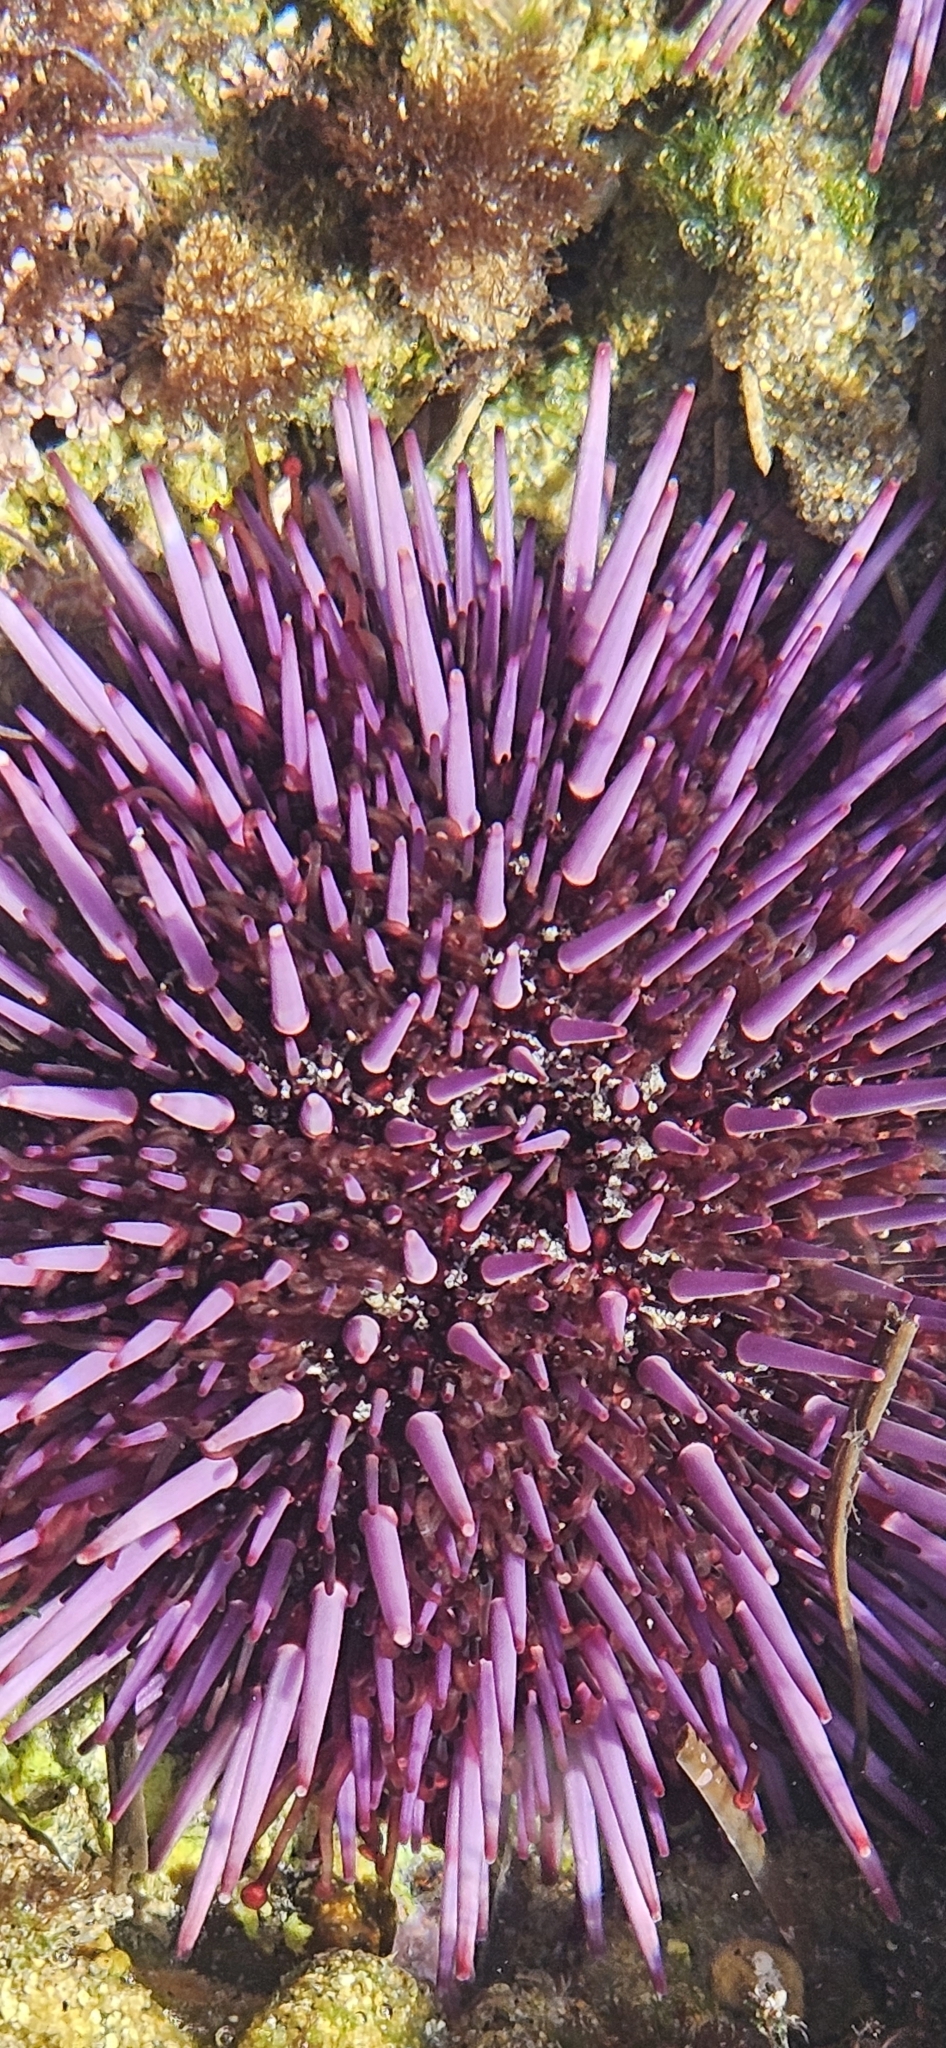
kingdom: Animalia
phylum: Echinodermata
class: Echinoidea
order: Camarodonta
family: Strongylocentrotidae
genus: Strongylocentrotus
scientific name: Strongylocentrotus purpuratus
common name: Purple sea urchin
